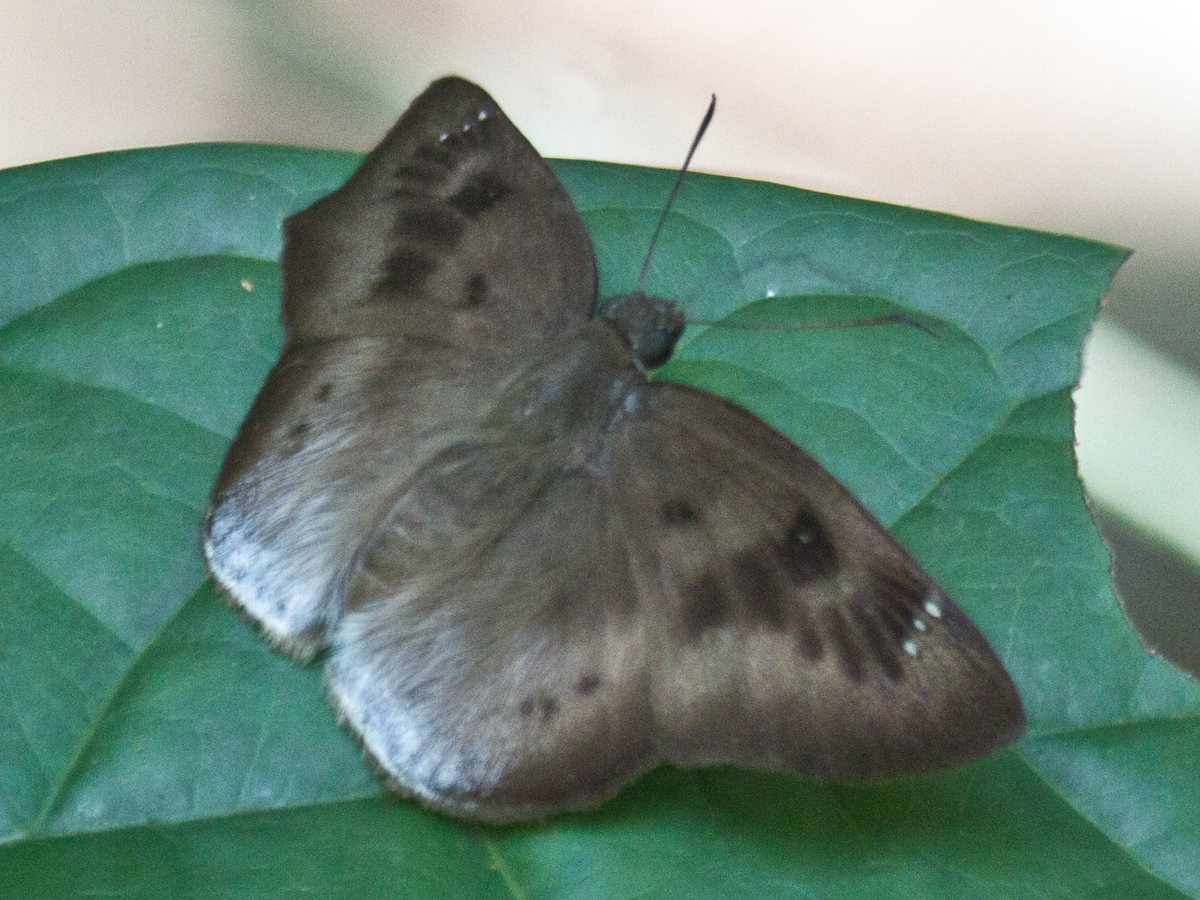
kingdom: Animalia
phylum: Arthropoda
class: Insecta
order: Lepidoptera
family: Hesperiidae
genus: Tagiades
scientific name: Tagiades gana
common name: Suffused snow flat
